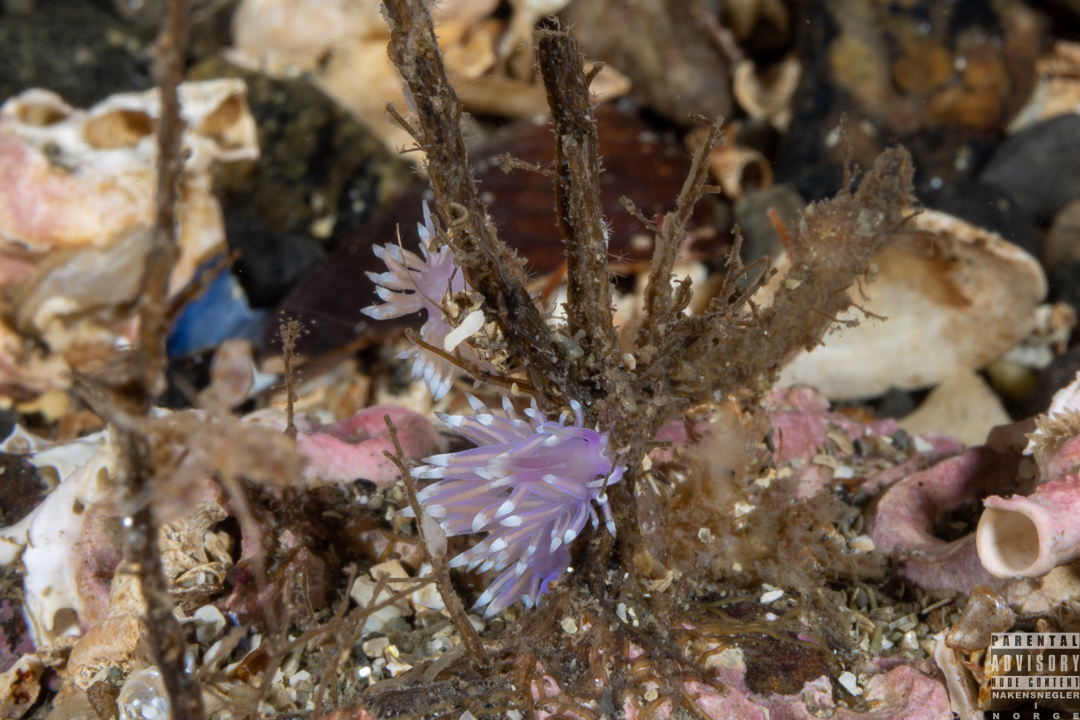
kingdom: Animalia
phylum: Mollusca
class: Gastropoda
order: Nudibranchia
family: Flabellinidae
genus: Edmundsella
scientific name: Edmundsella pedata
